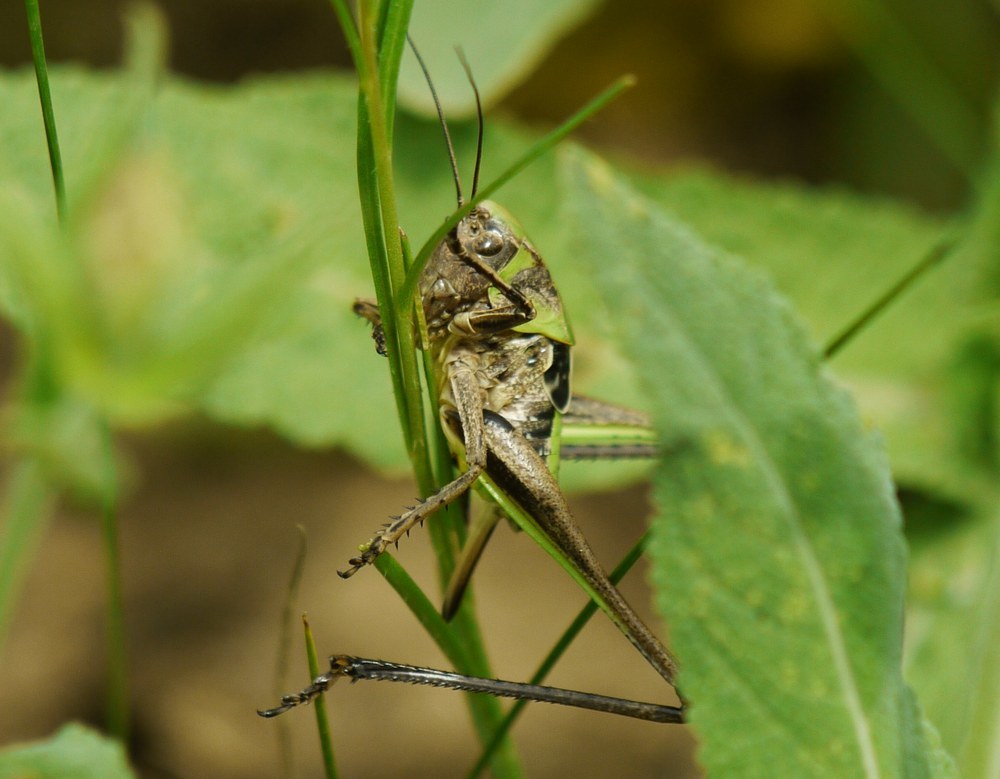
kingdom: Animalia
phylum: Arthropoda
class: Insecta
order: Orthoptera
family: Tettigoniidae
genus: Decticus
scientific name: Decticus verrucivorus
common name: Wart-biter
